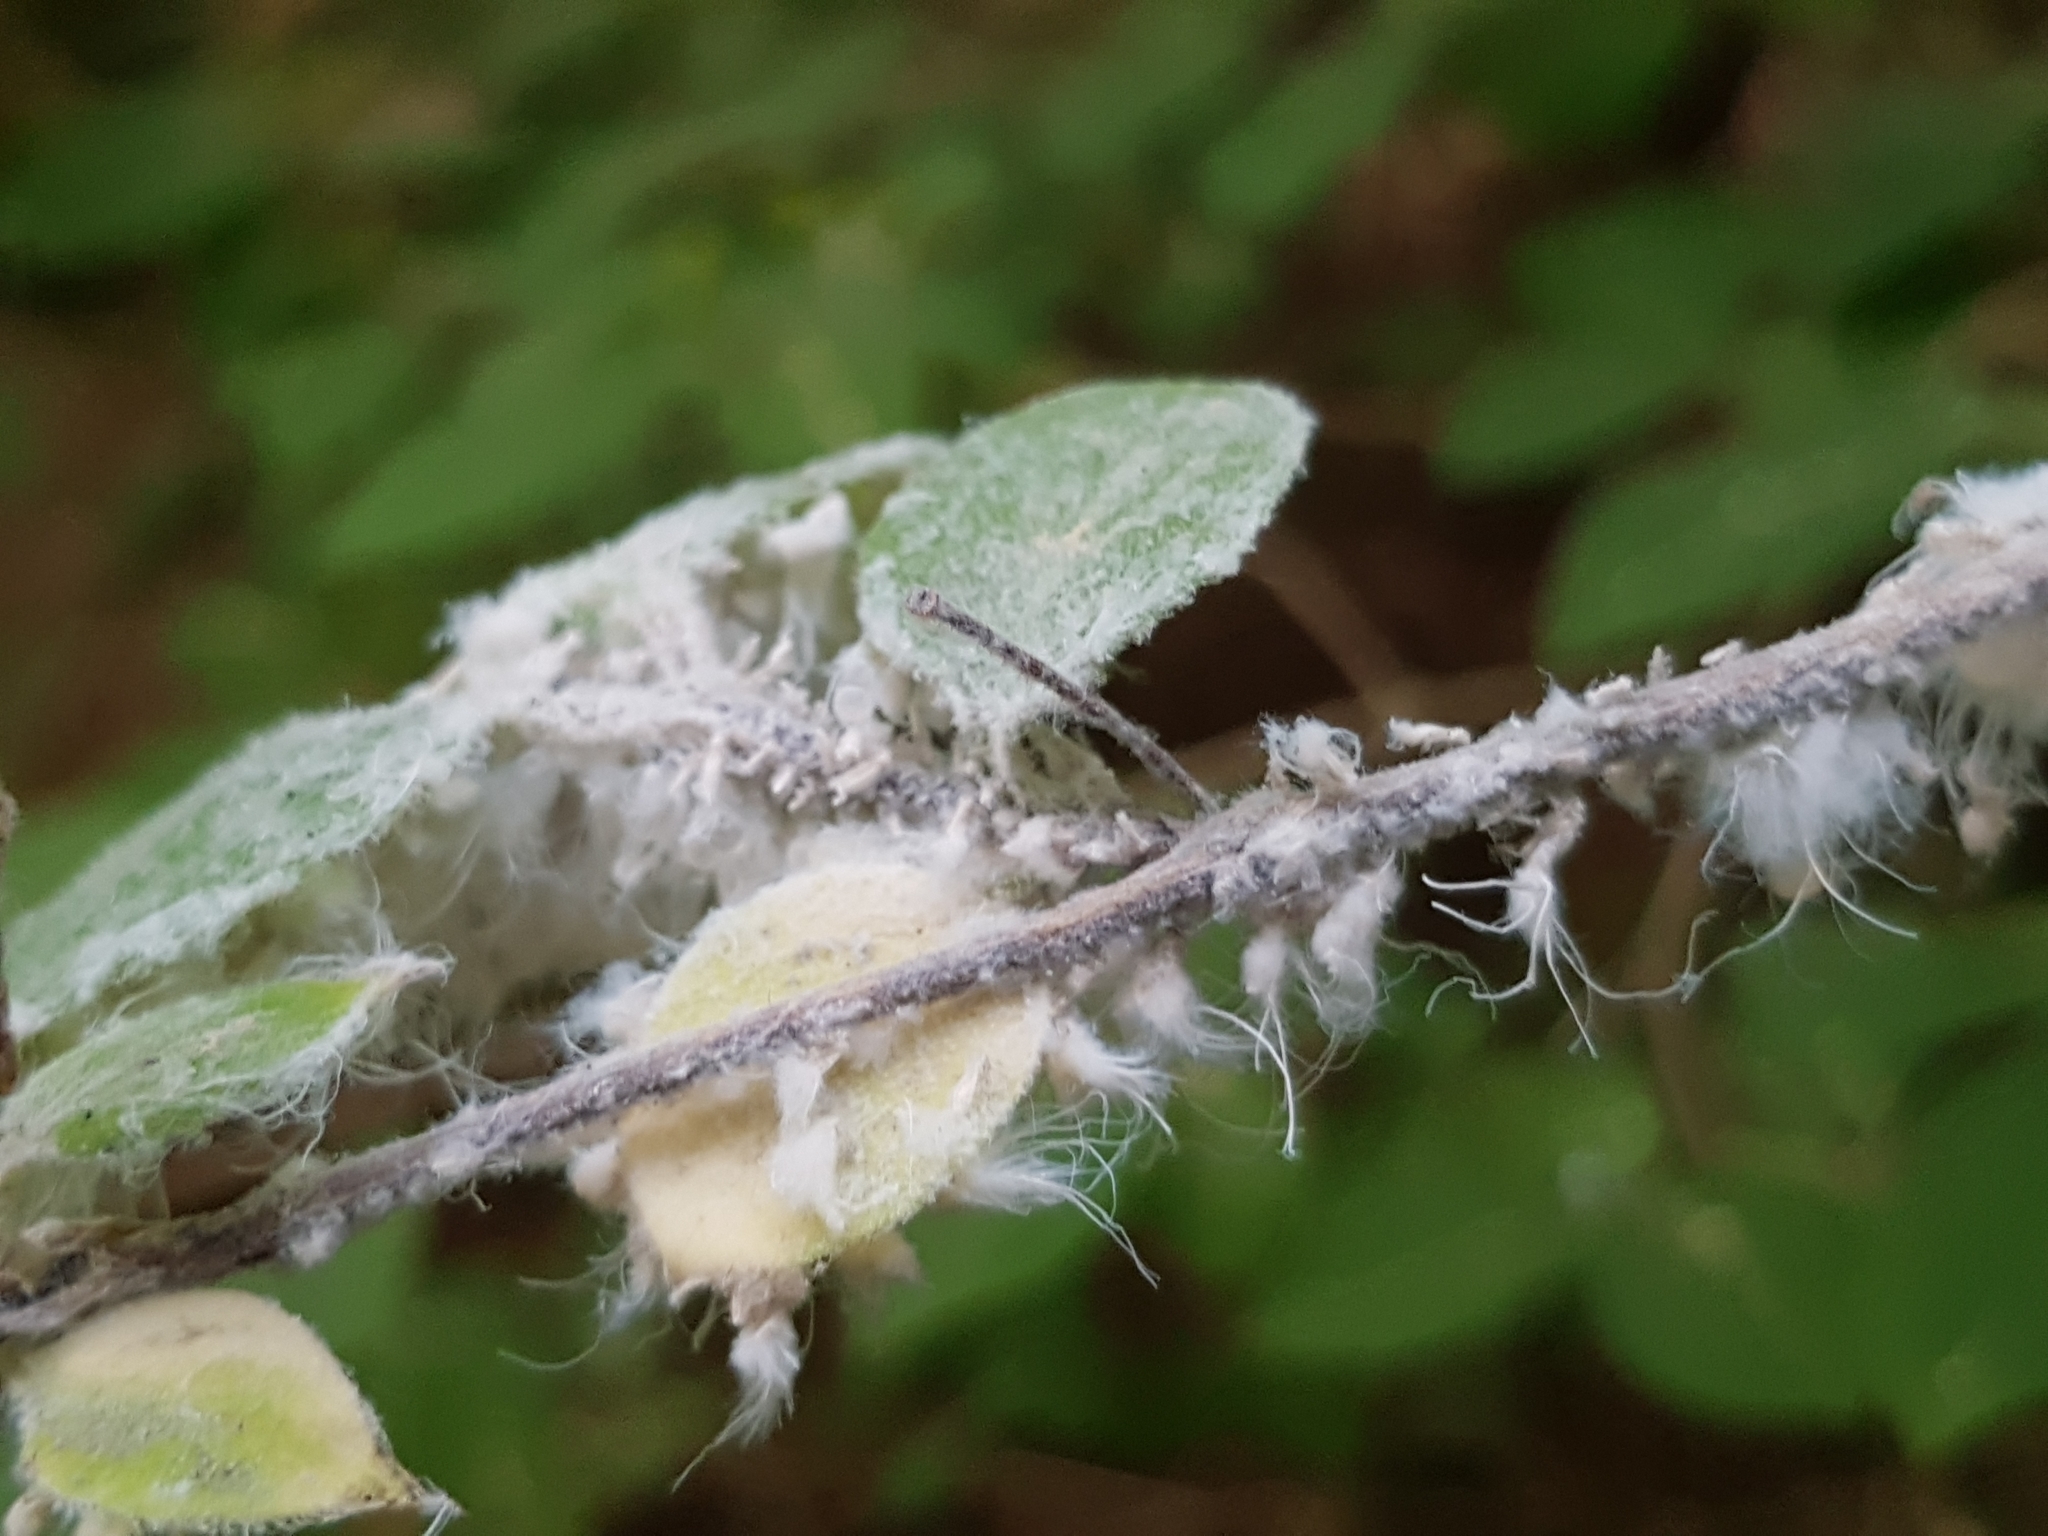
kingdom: Animalia
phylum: Arthropoda
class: Insecta
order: Hemiptera
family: Aphididae
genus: Prociphilus
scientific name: Prociphilus xylostei
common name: Aphid
